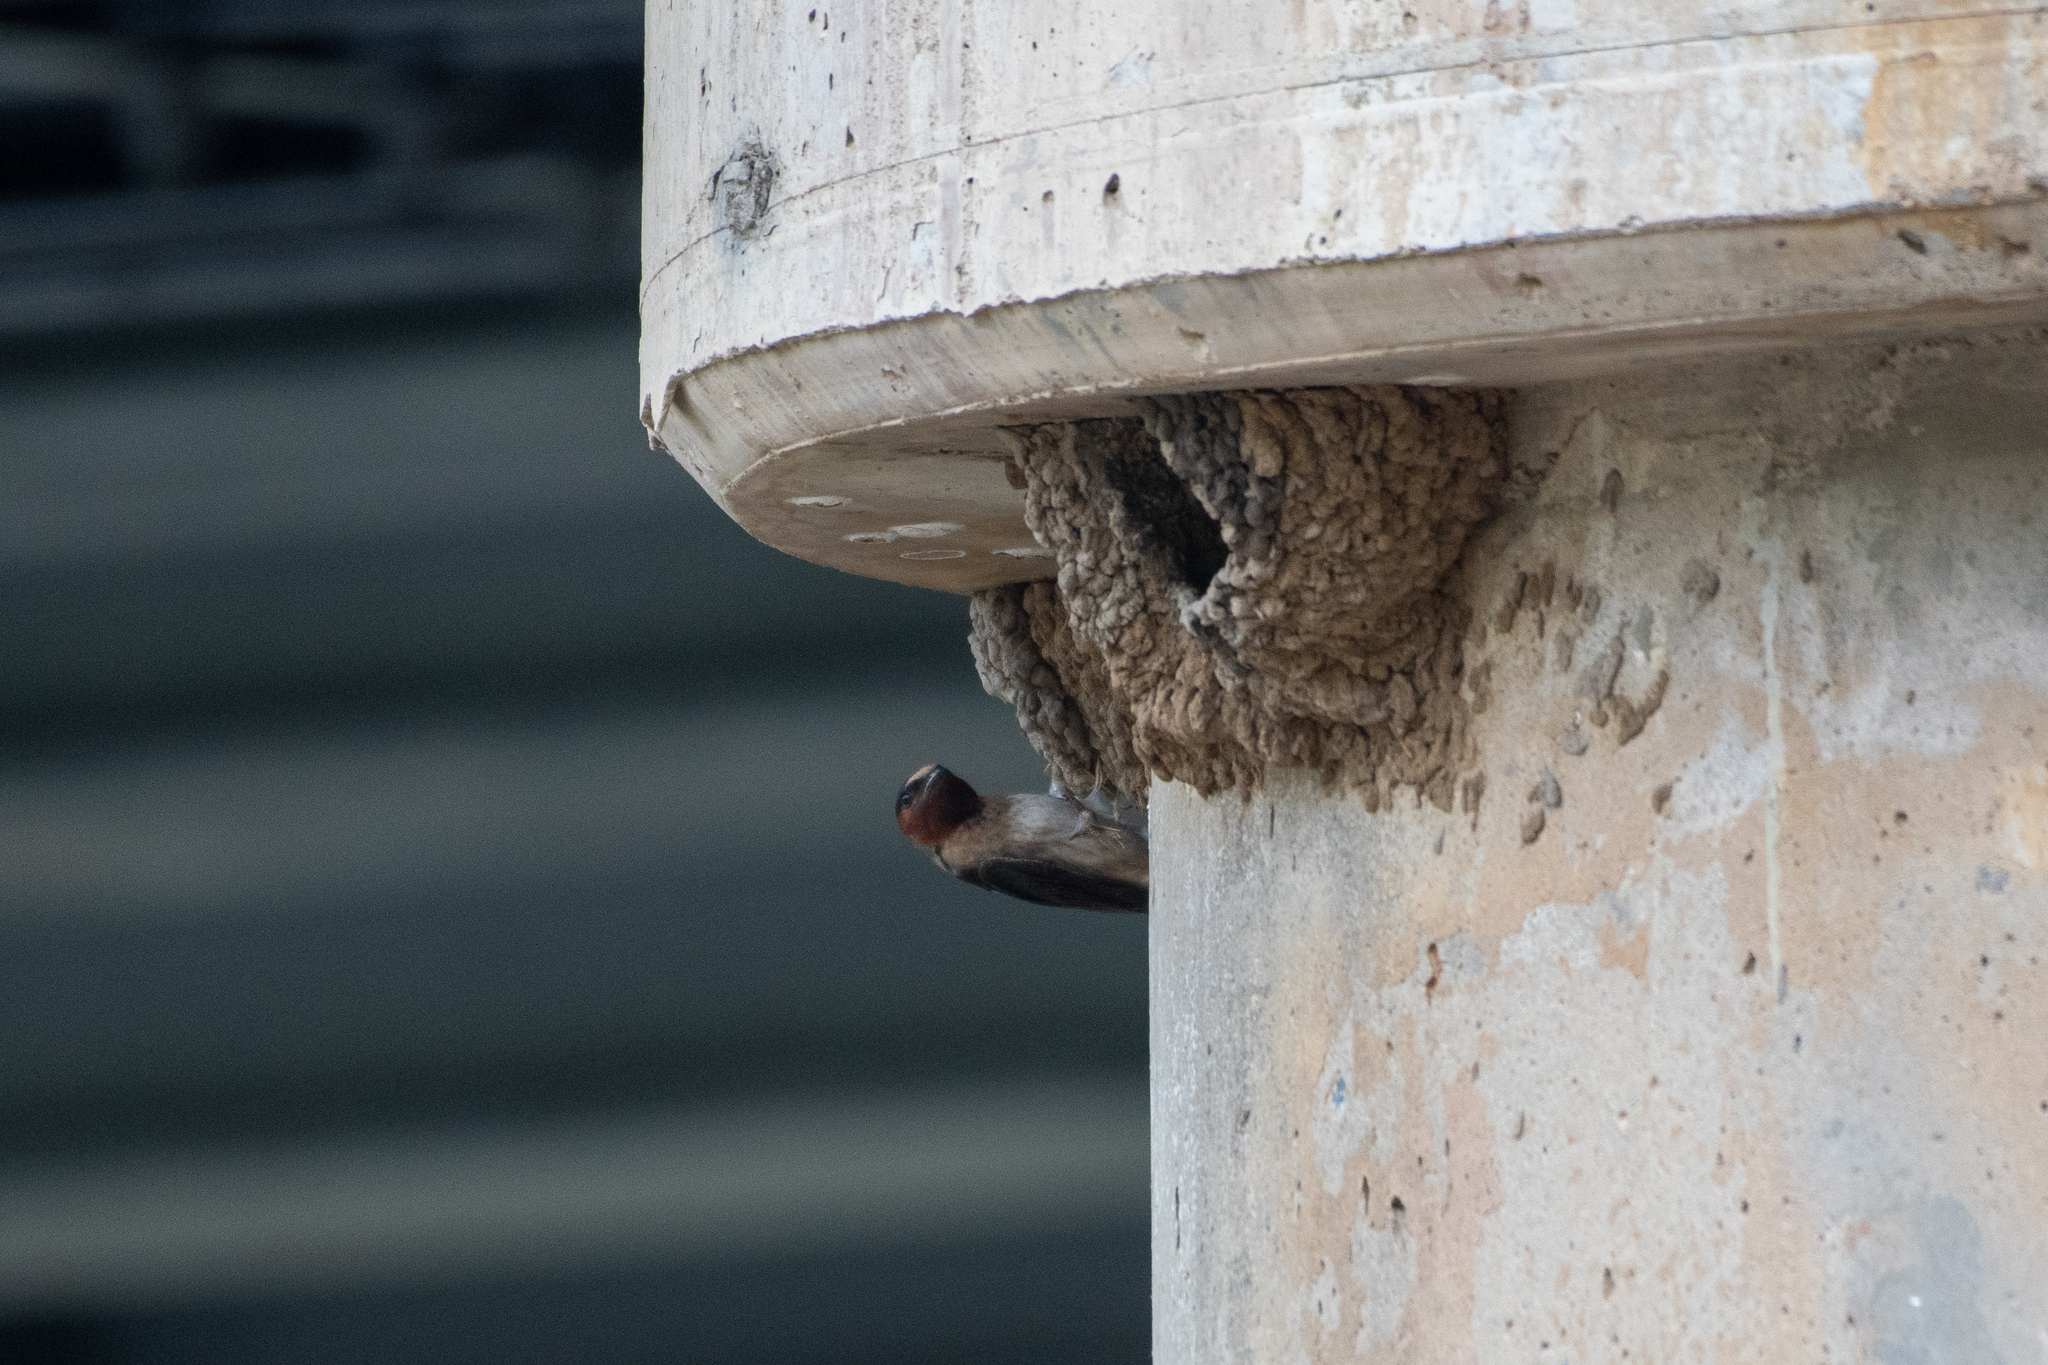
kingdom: Animalia
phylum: Chordata
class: Aves
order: Passeriformes
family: Hirundinidae
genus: Petrochelidon
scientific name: Petrochelidon pyrrhonota
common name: American cliff swallow
